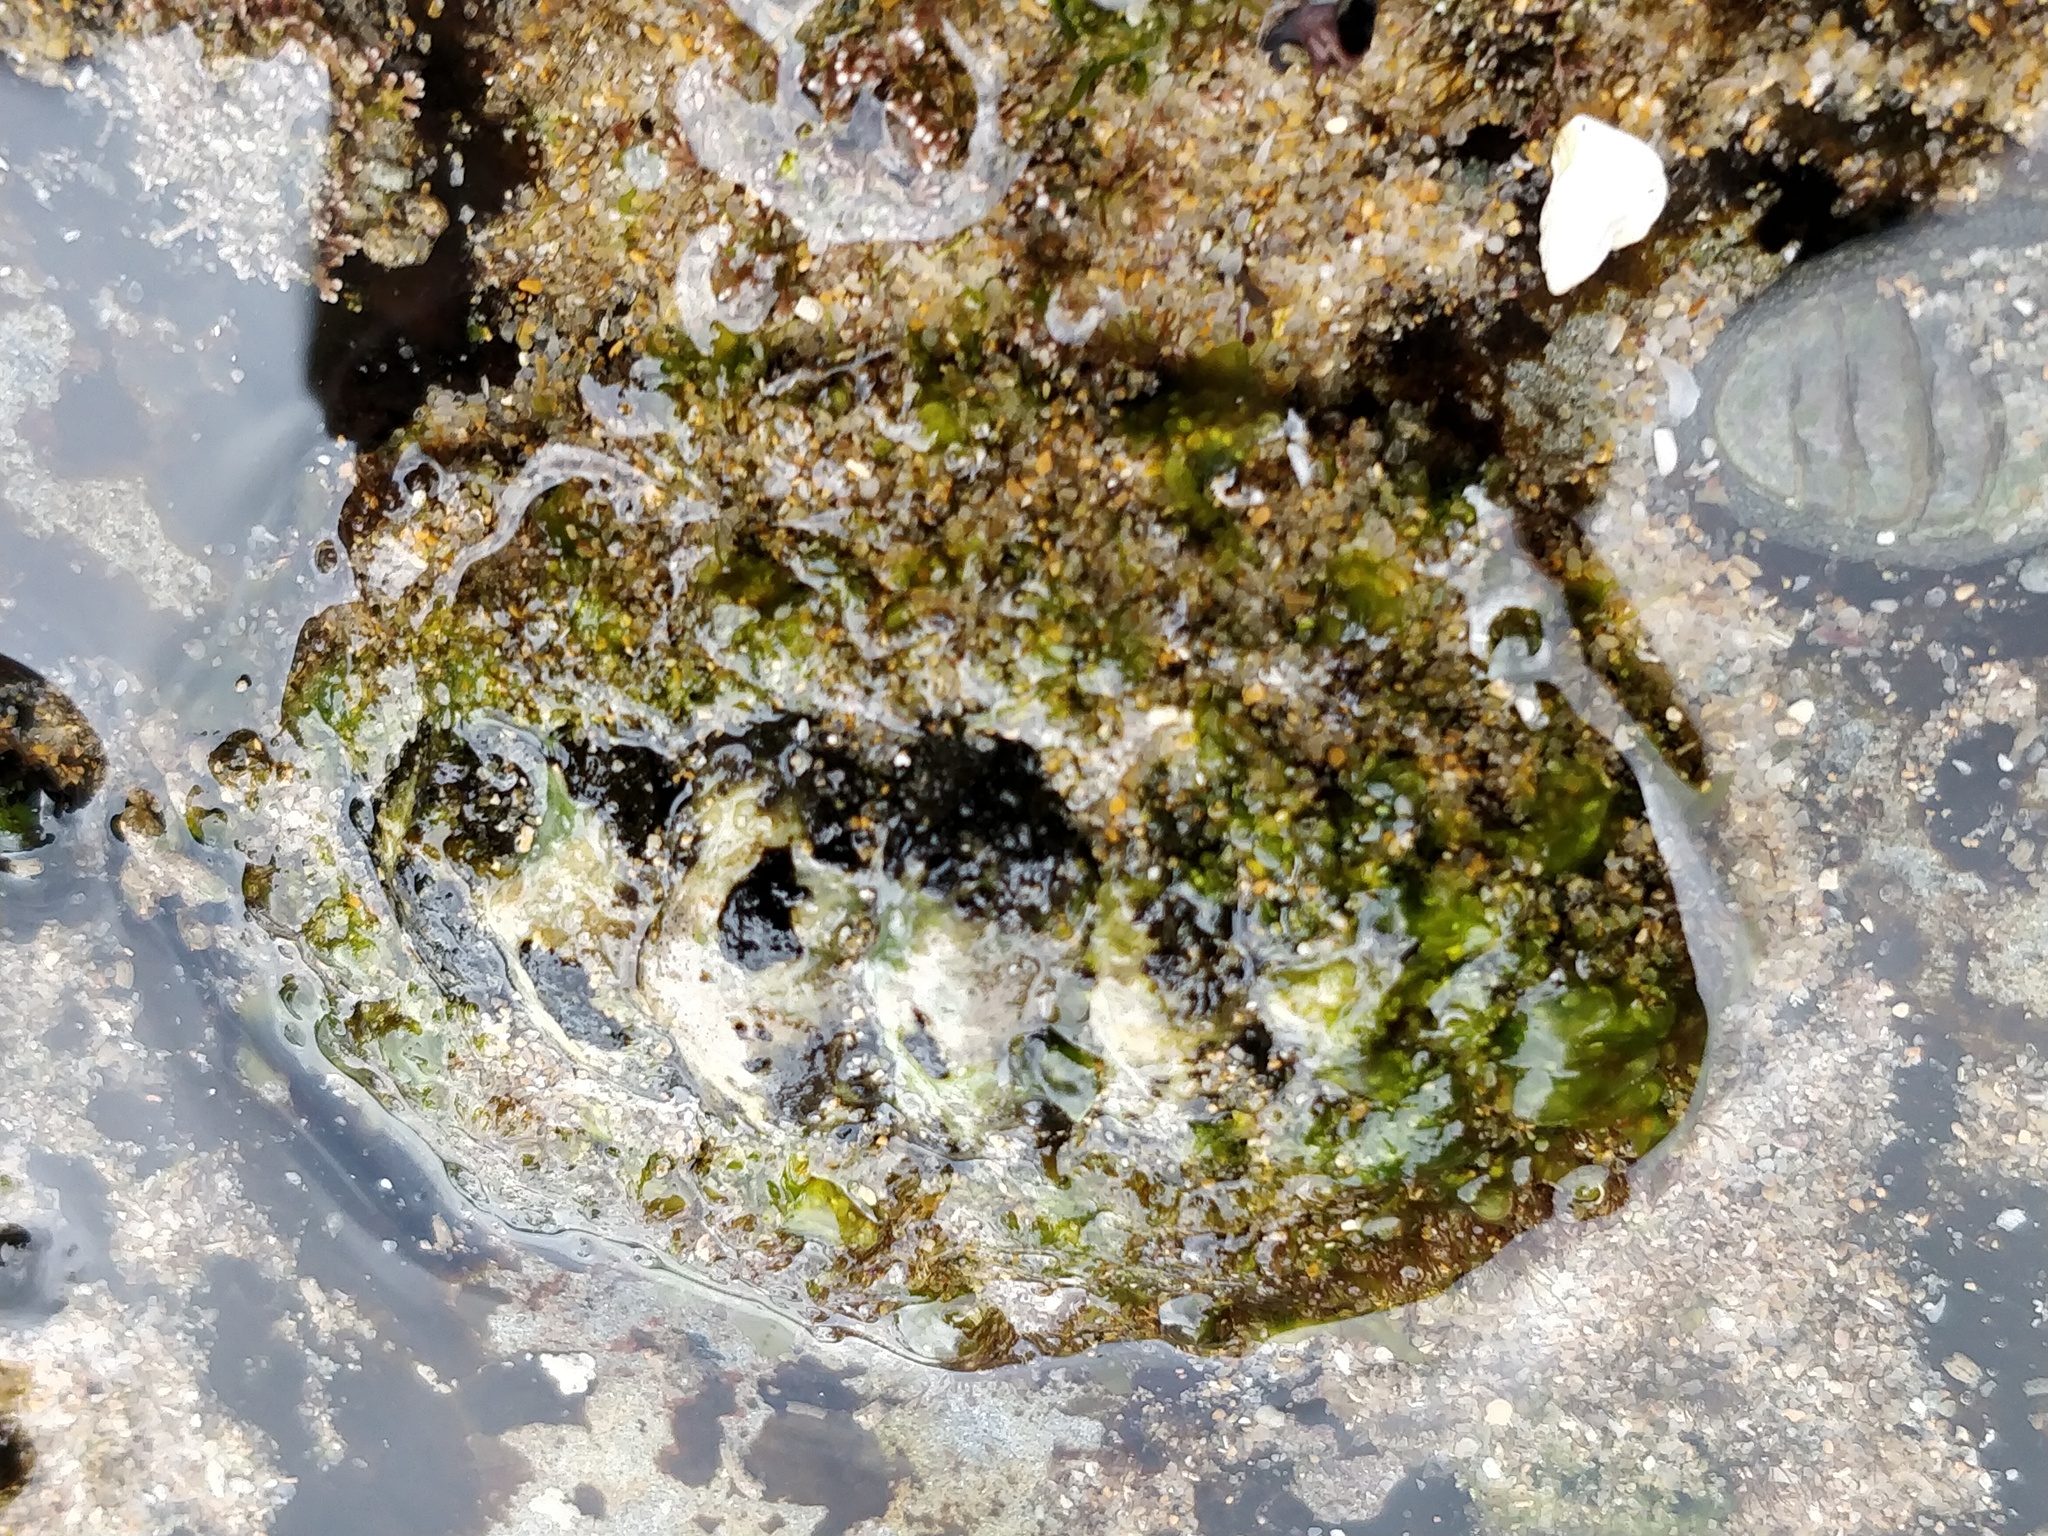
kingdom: Animalia
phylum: Mollusca
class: Polyplacophora
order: Chitonida
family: Mopaliidae
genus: Plaxiphora
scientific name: Plaxiphora albida
